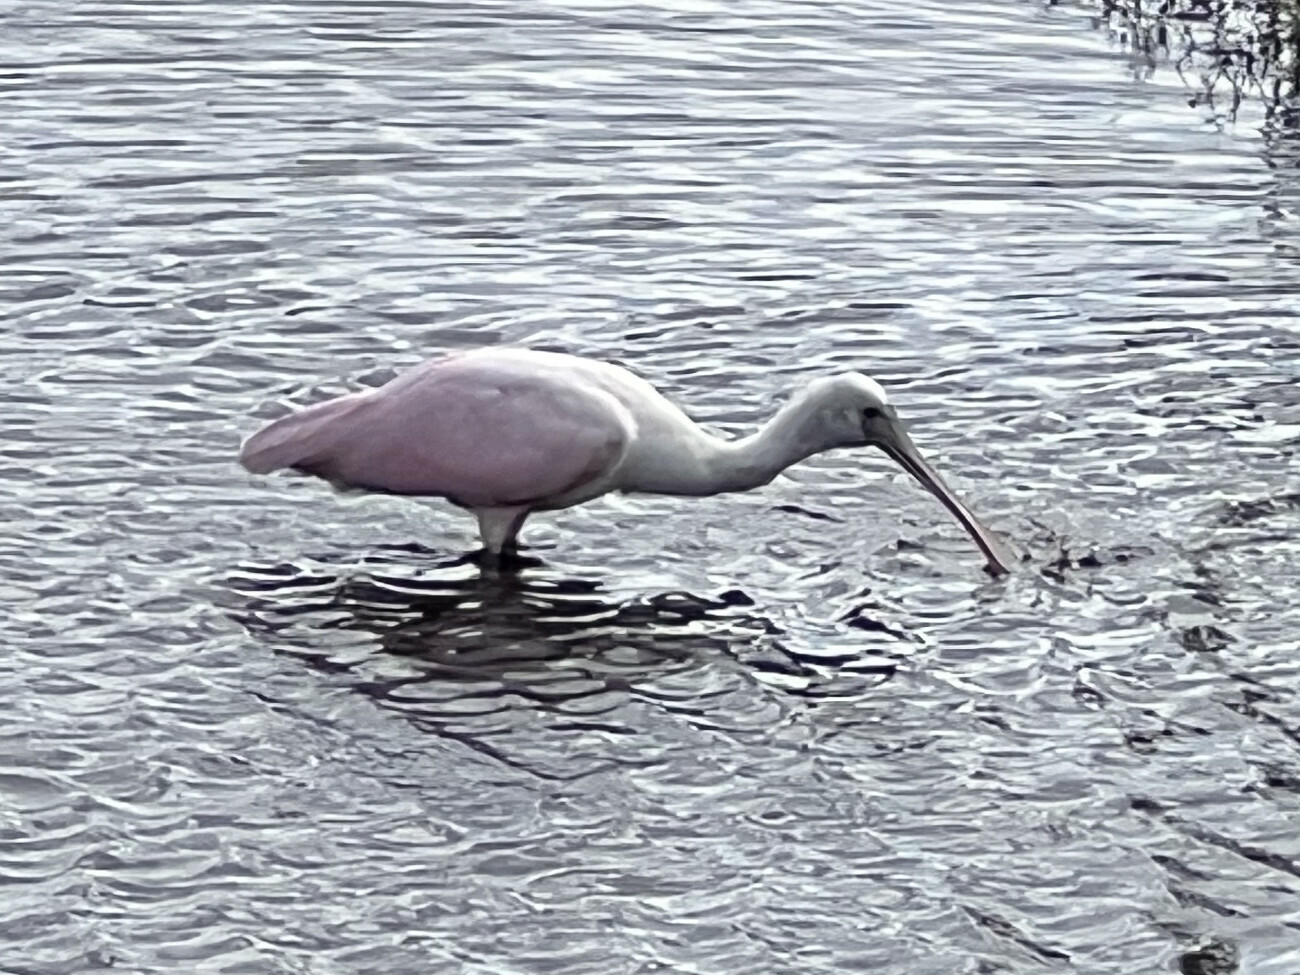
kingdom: Animalia
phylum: Chordata
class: Aves
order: Pelecaniformes
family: Threskiornithidae
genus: Platalea
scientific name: Platalea ajaja
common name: Roseate spoonbill
